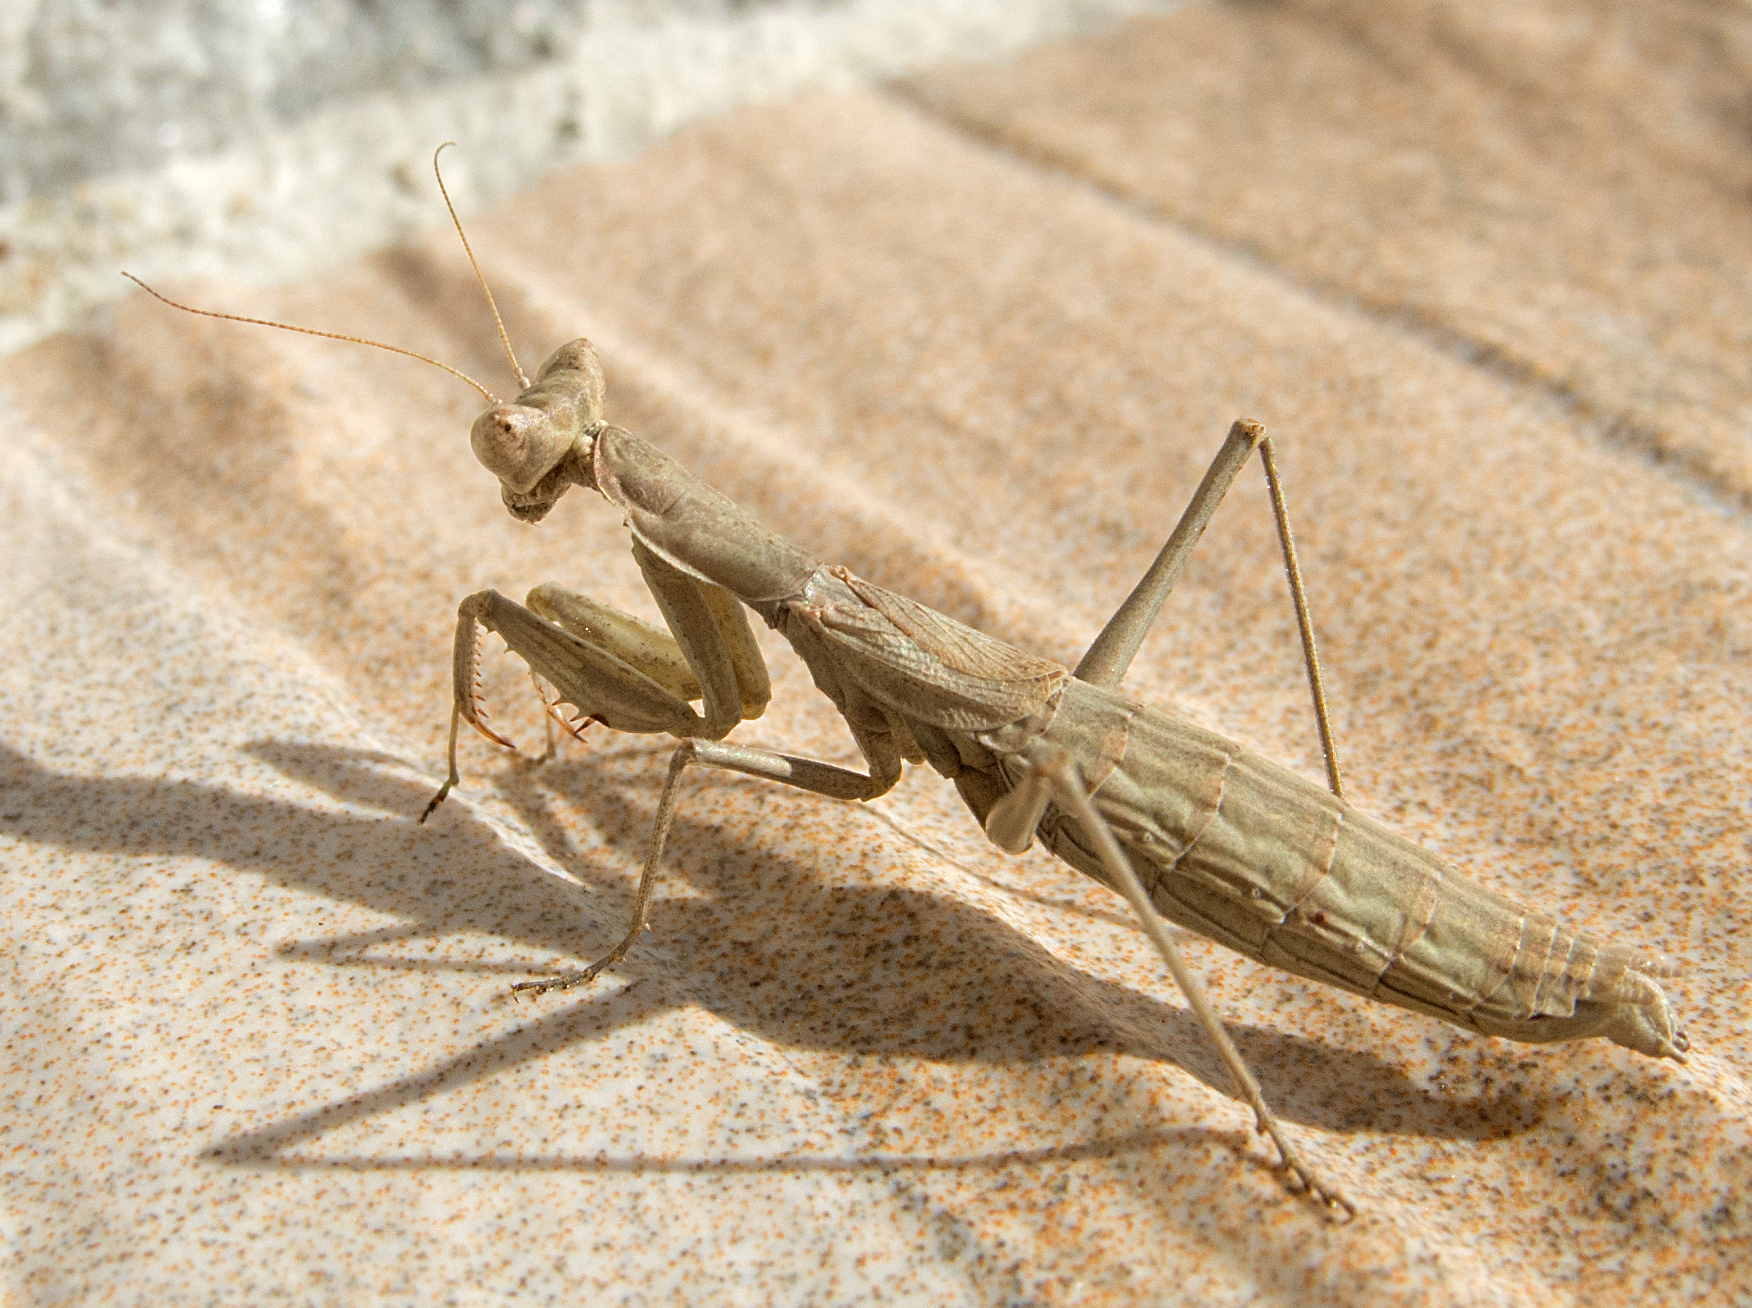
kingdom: Animalia
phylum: Arthropoda
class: Insecta
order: Mantodea
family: Amelidae
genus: Ameles
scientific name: Ameles heldreichi
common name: Heldreich's dwarf mantis
